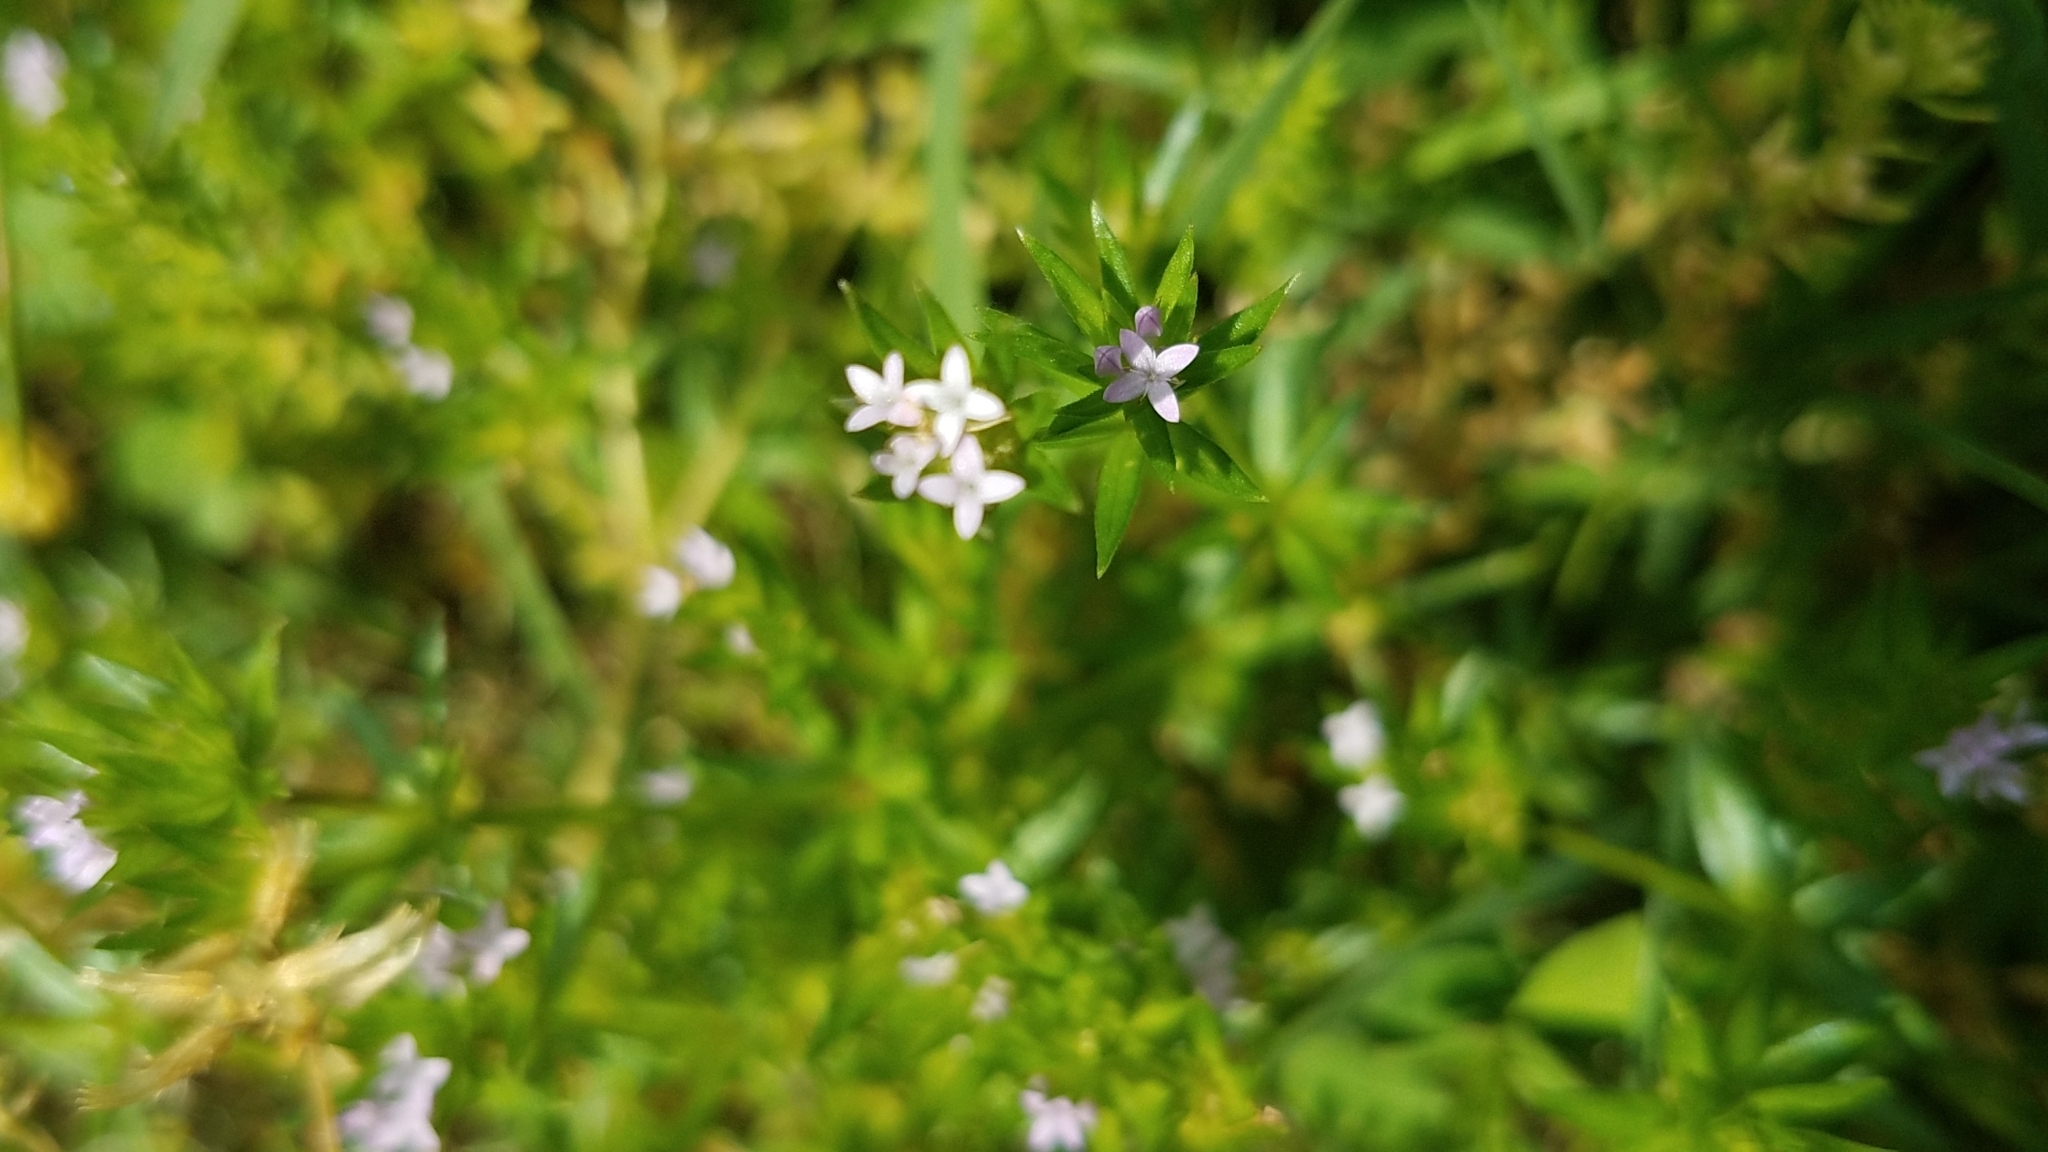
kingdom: Plantae
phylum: Tracheophyta
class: Magnoliopsida
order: Gentianales
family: Rubiaceae
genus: Sherardia
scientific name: Sherardia arvensis
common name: Field madder
